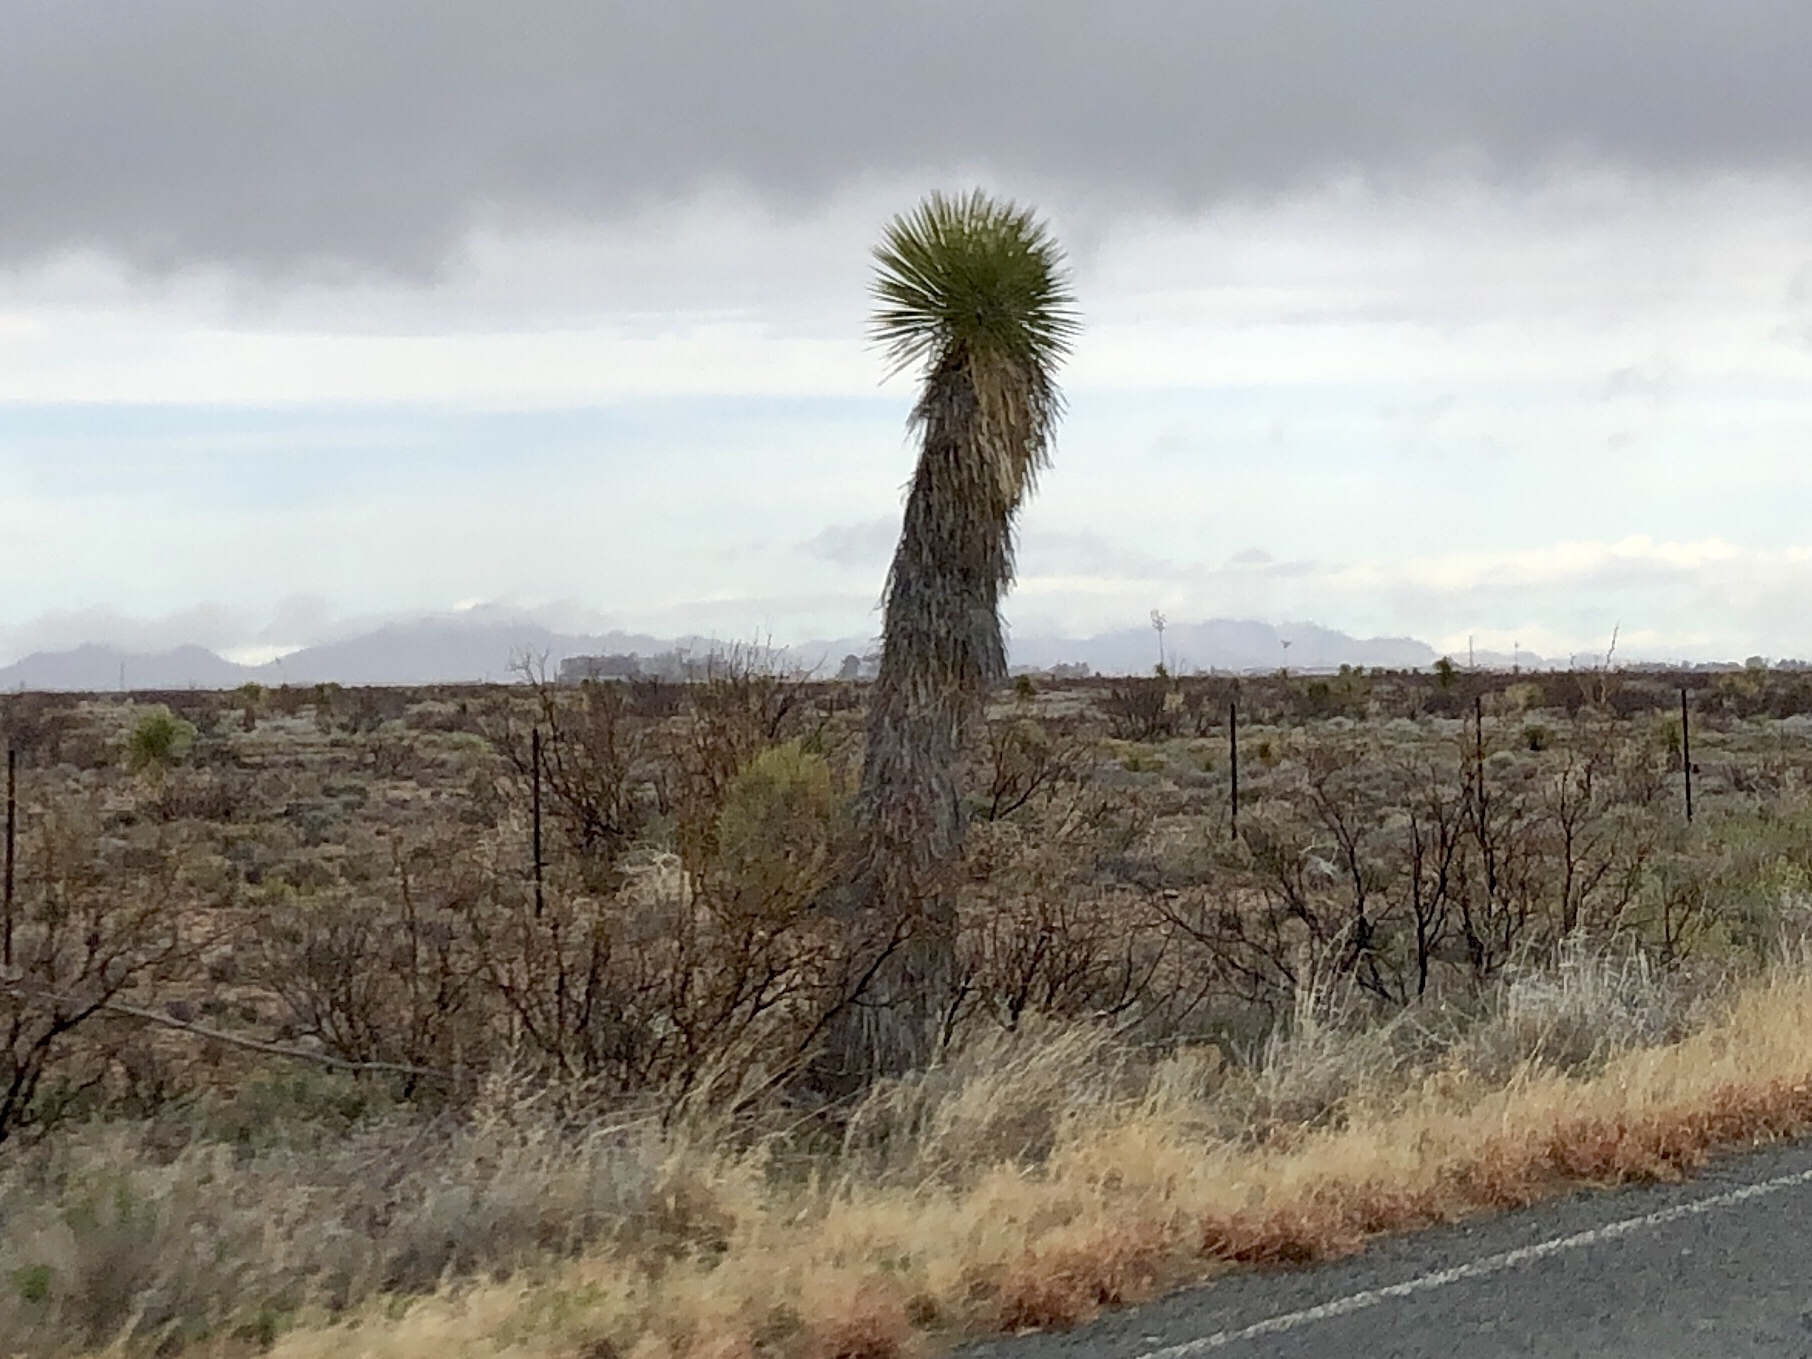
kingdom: Plantae
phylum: Tracheophyta
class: Liliopsida
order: Asparagales
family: Asparagaceae
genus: Yucca
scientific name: Yucca elata
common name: Palmella
